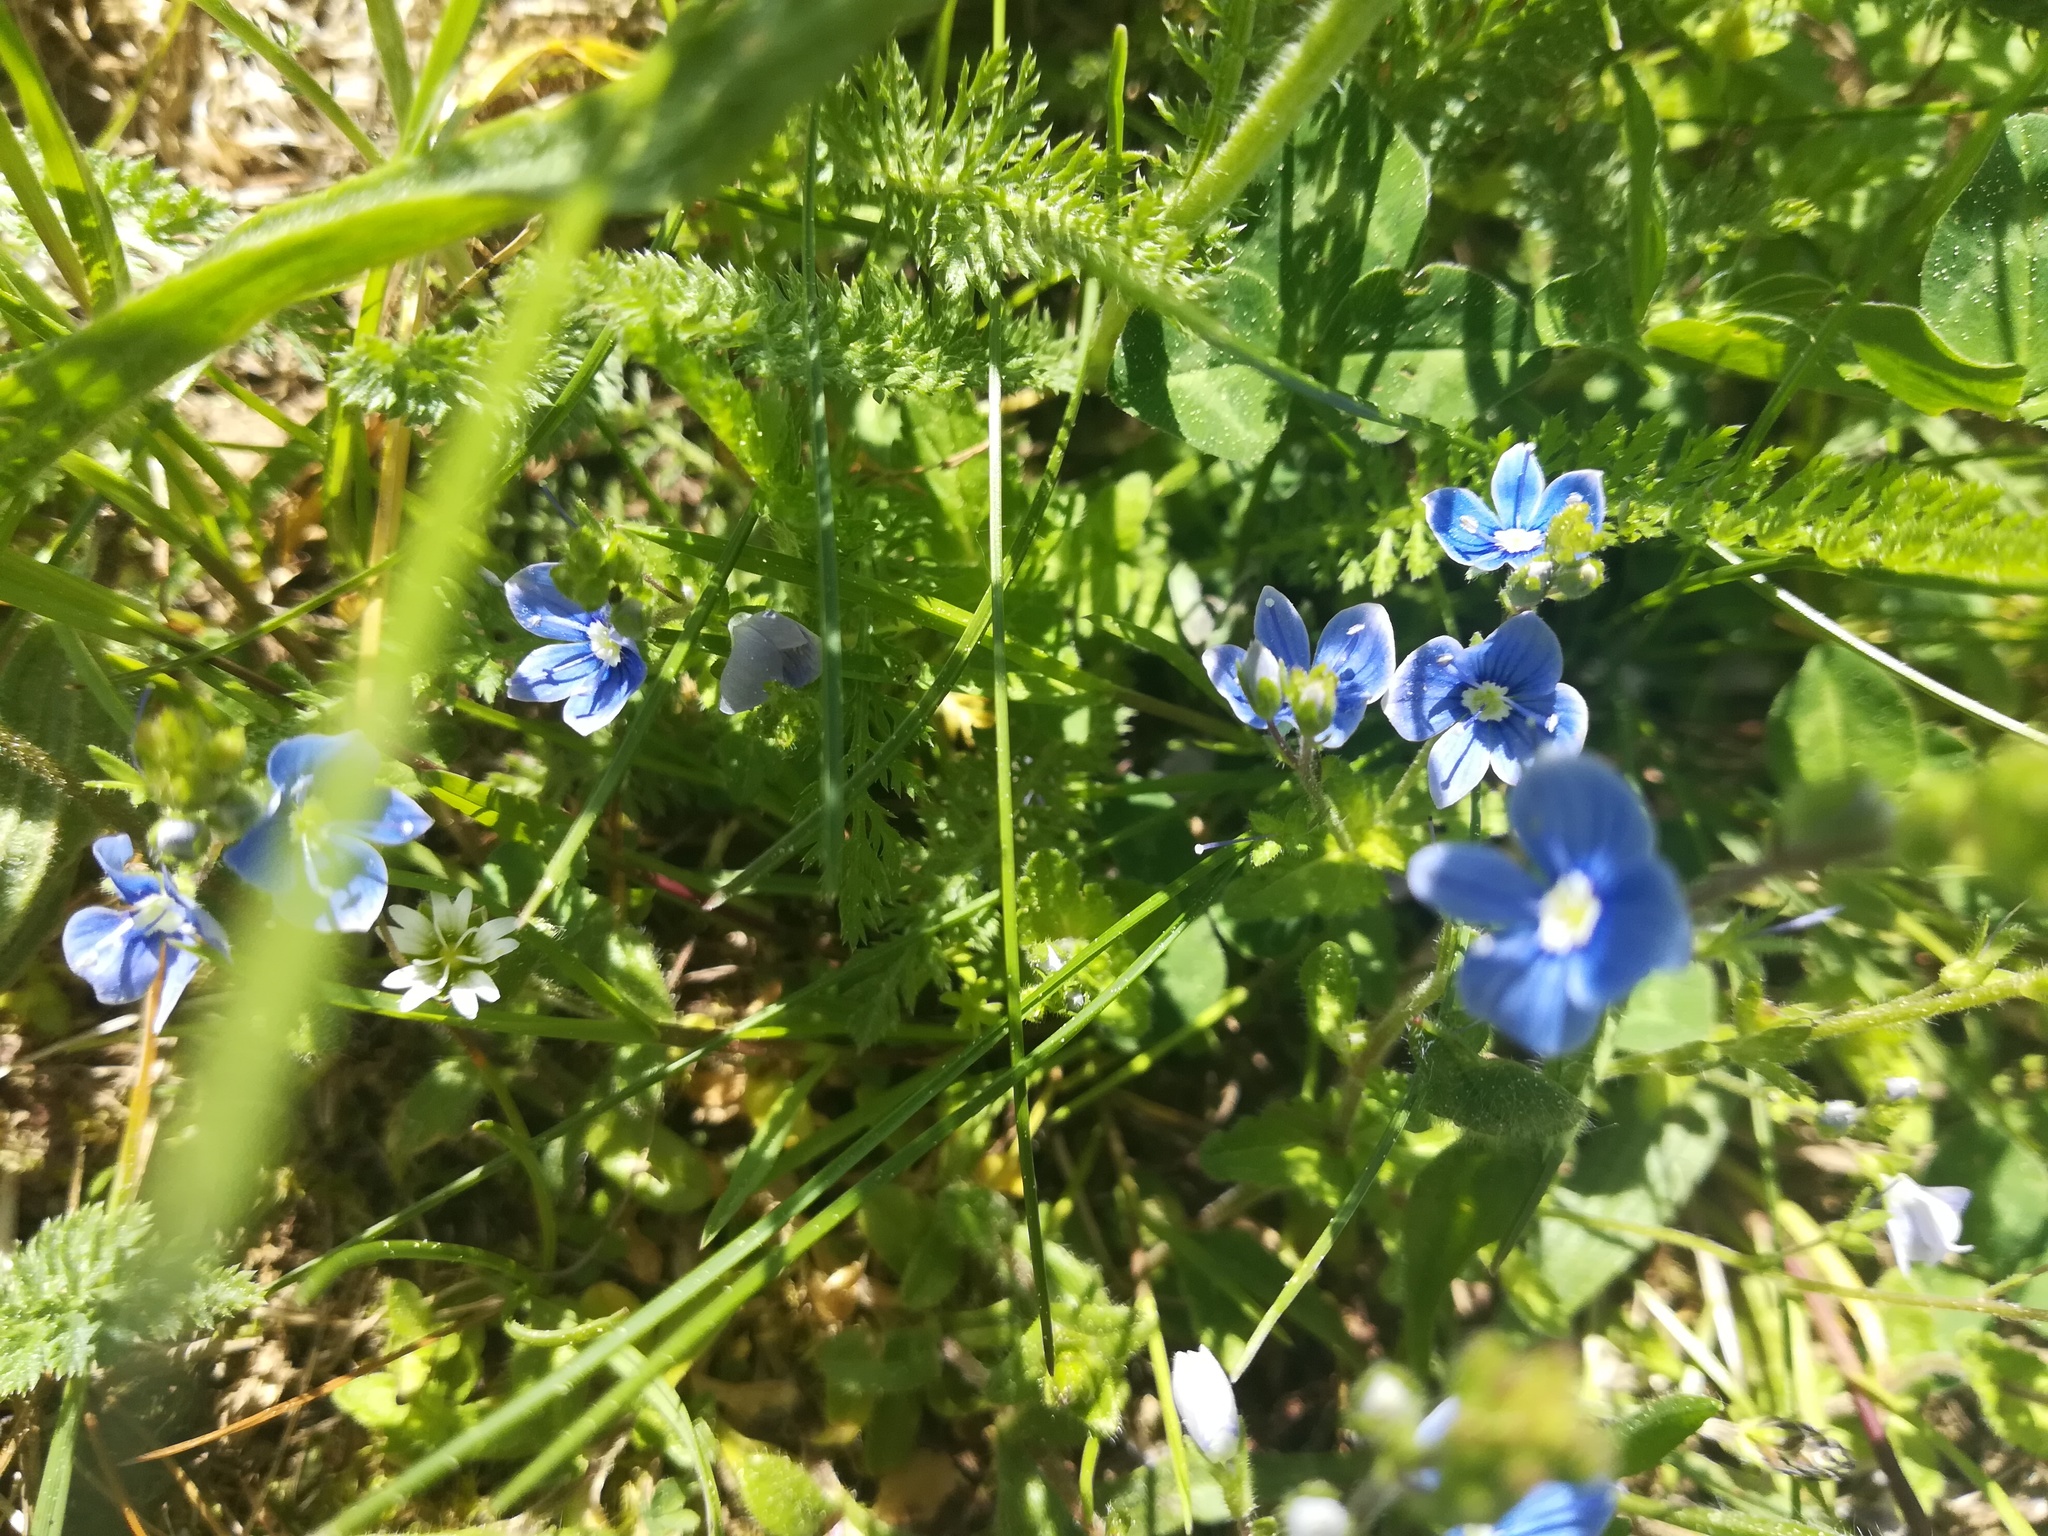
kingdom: Plantae
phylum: Tracheophyta
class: Magnoliopsida
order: Lamiales
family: Plantaginaceae
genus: Veronica
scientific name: Veronica chamaedrys
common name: Germander speedwell
